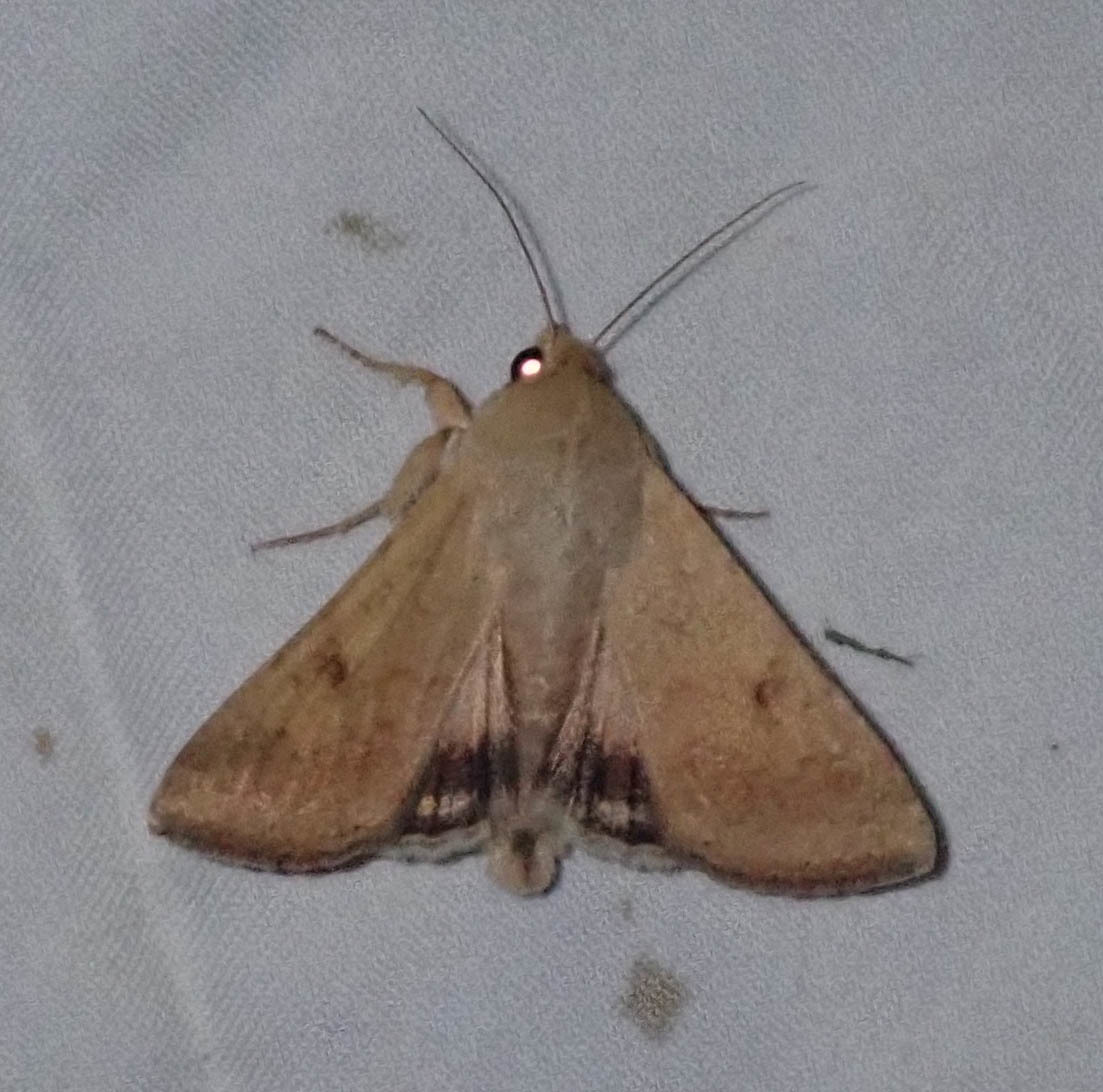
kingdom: Animalia
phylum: Arthropoda
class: Insecta
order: Lepidoptera
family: Noctuidae
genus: Helicoverpa
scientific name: Helicoverpa armigera
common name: Cotton bollworm
